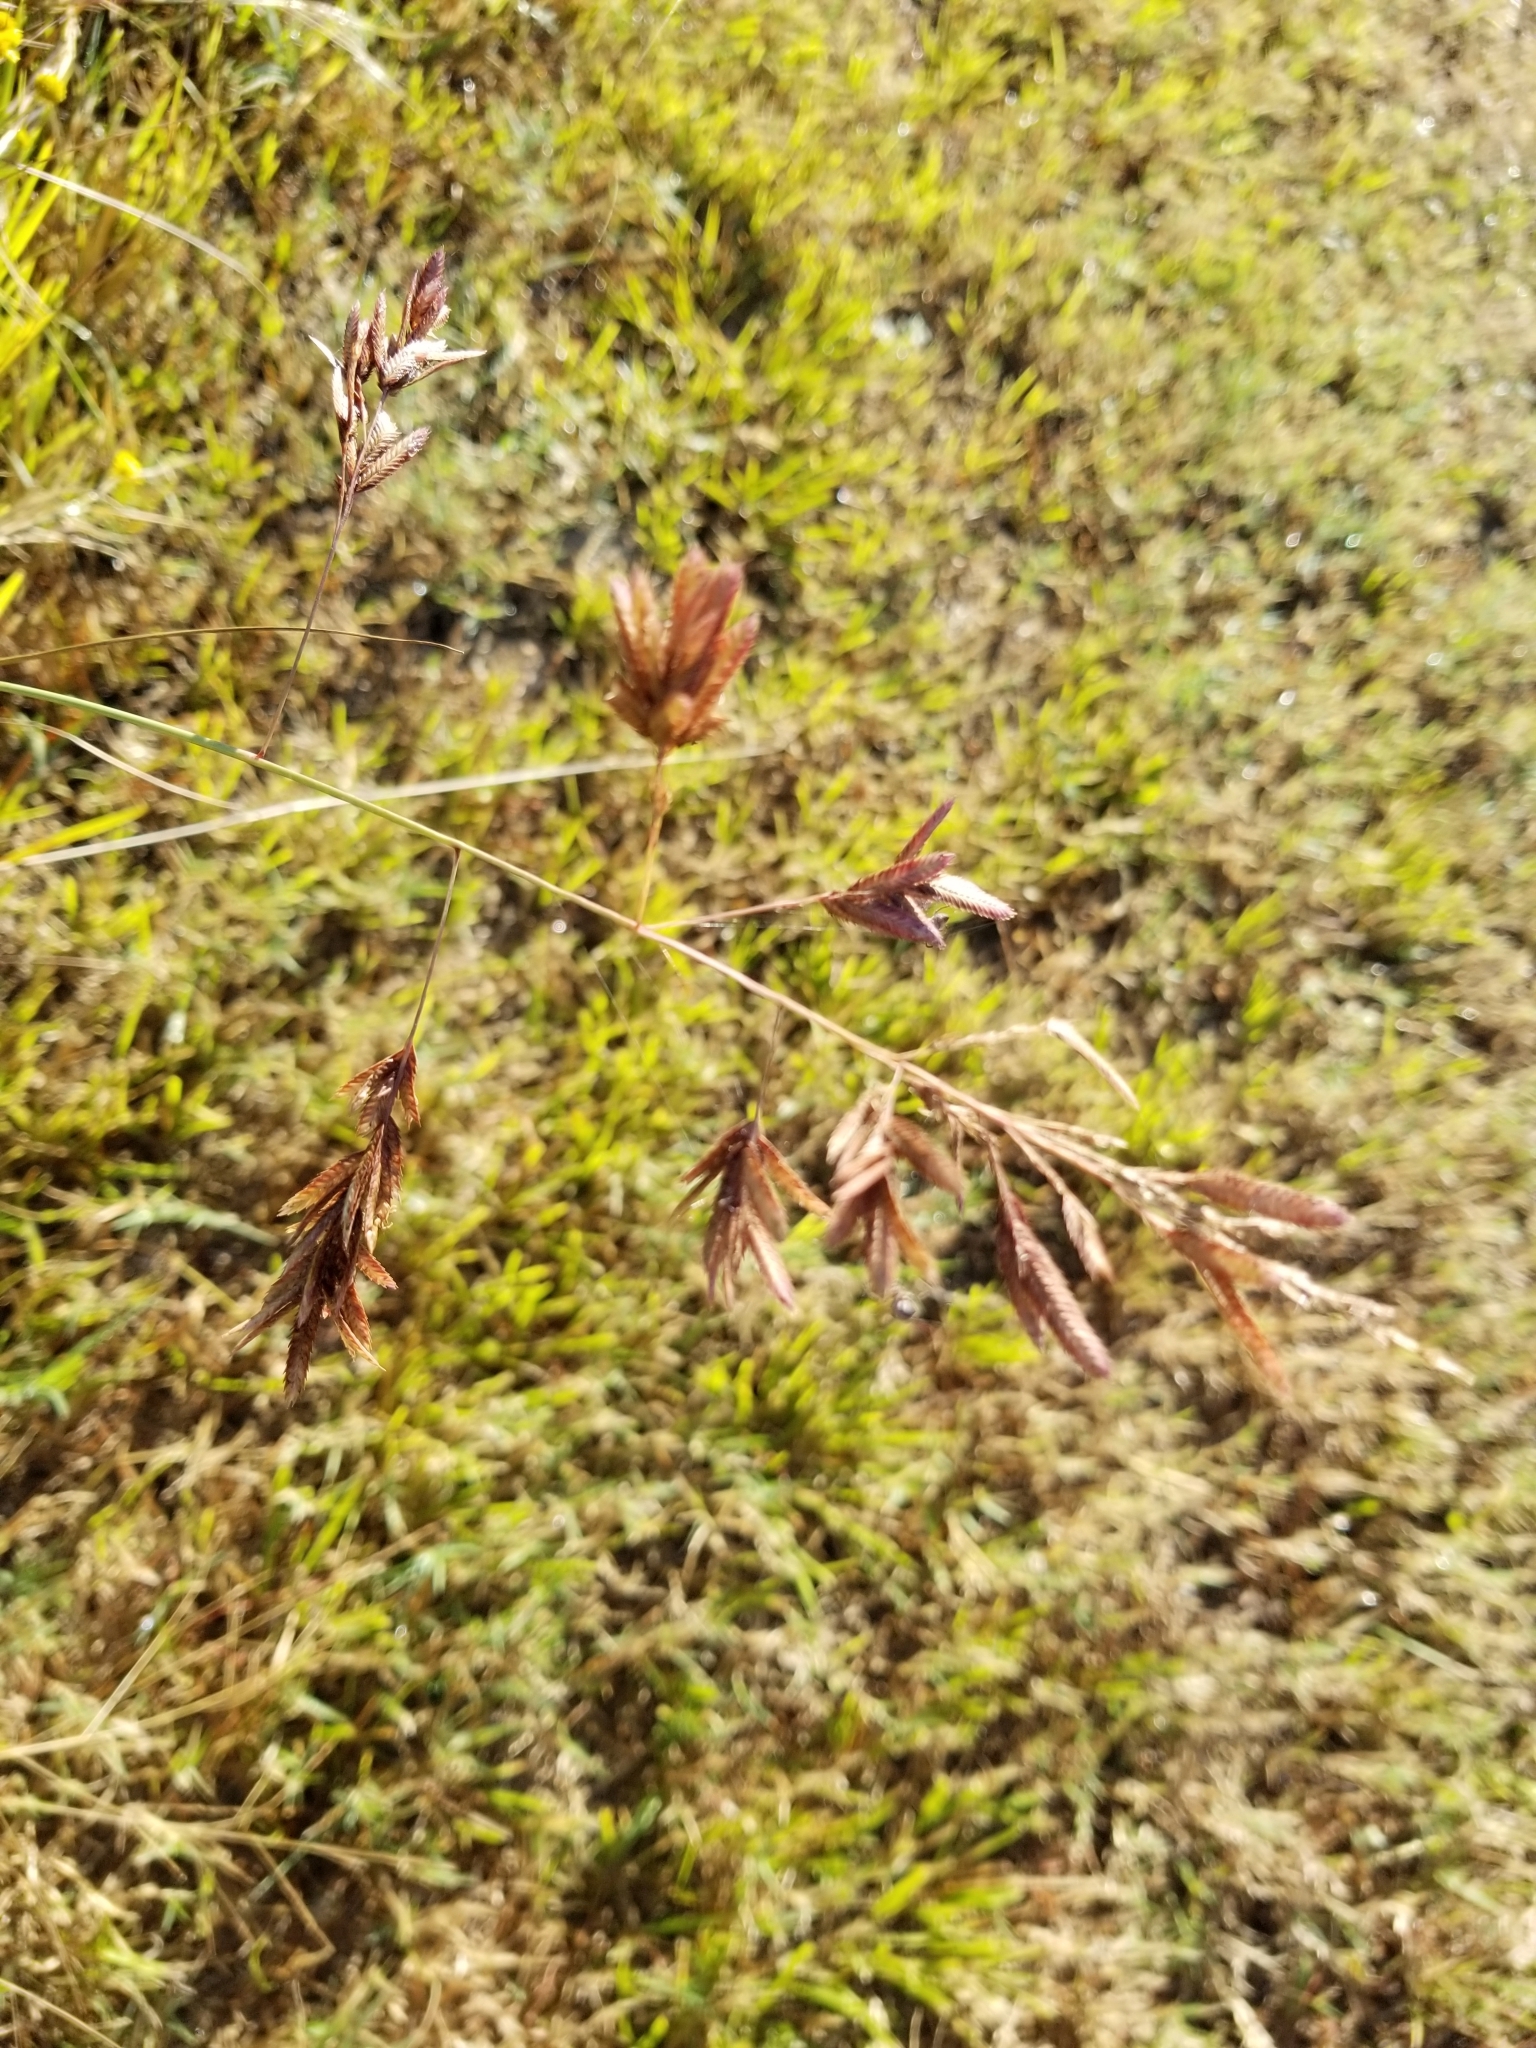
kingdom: Plantae
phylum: Tracheophyta
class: Liliopsida
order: Poales
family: Poaceae
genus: Eragrostis
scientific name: Eragrostis secundiflora
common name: Red love grass
